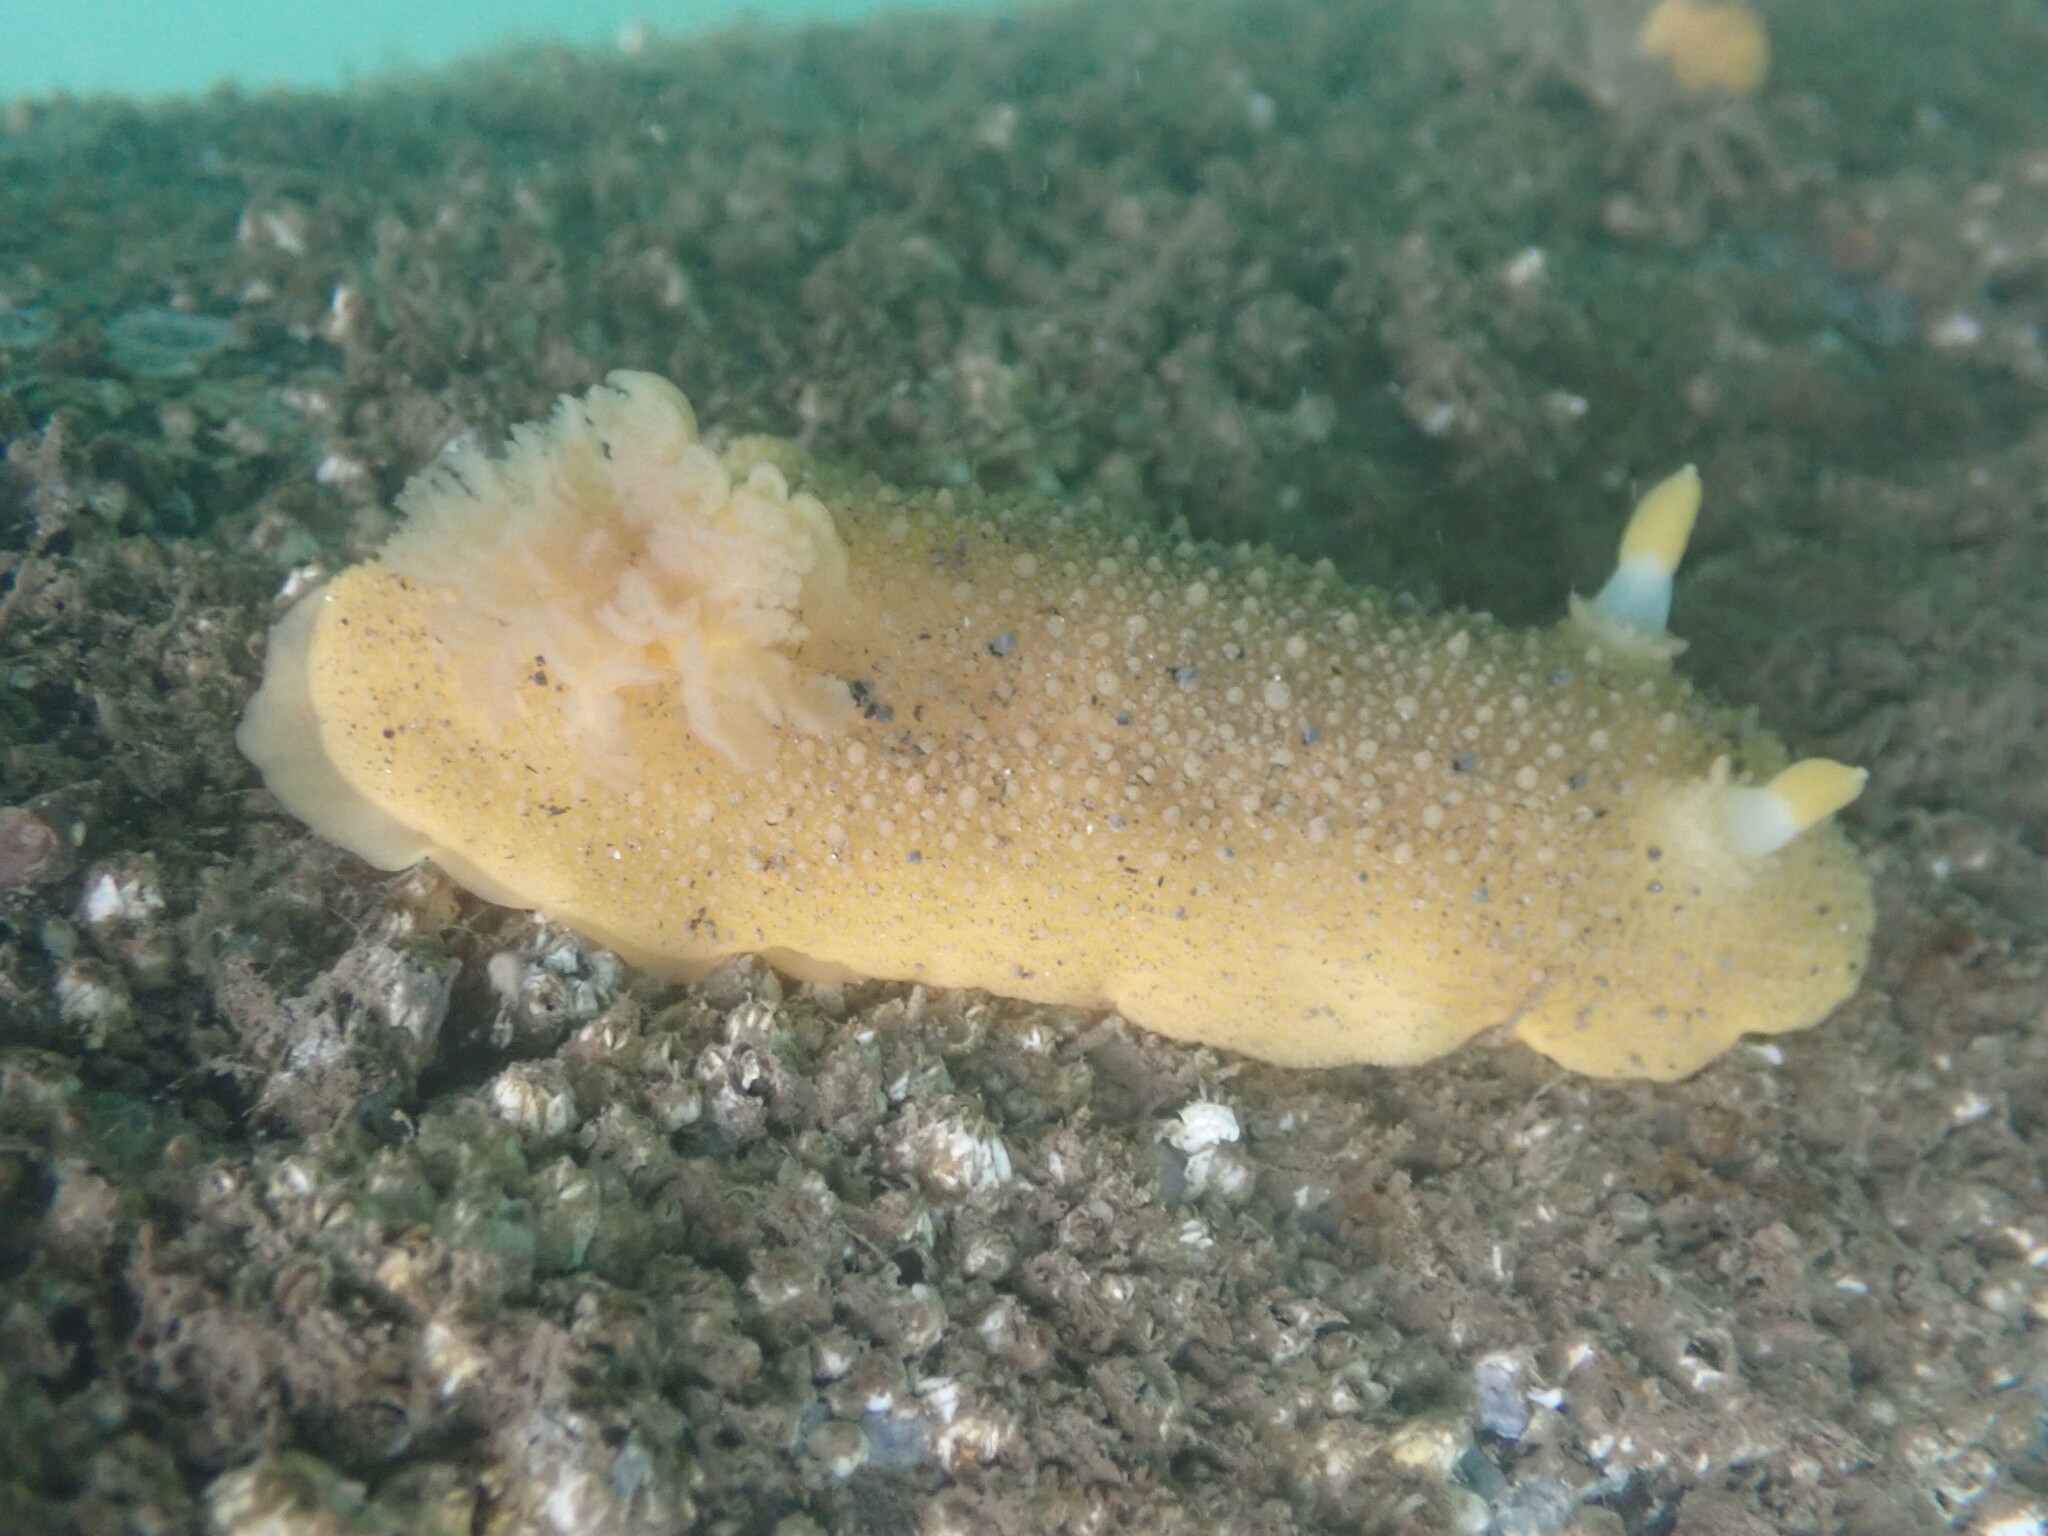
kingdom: Animalia
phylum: Mollusca
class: Gastropoda
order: Nudibranchia
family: Dorididae
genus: Doris
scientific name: Doris montereyensis
